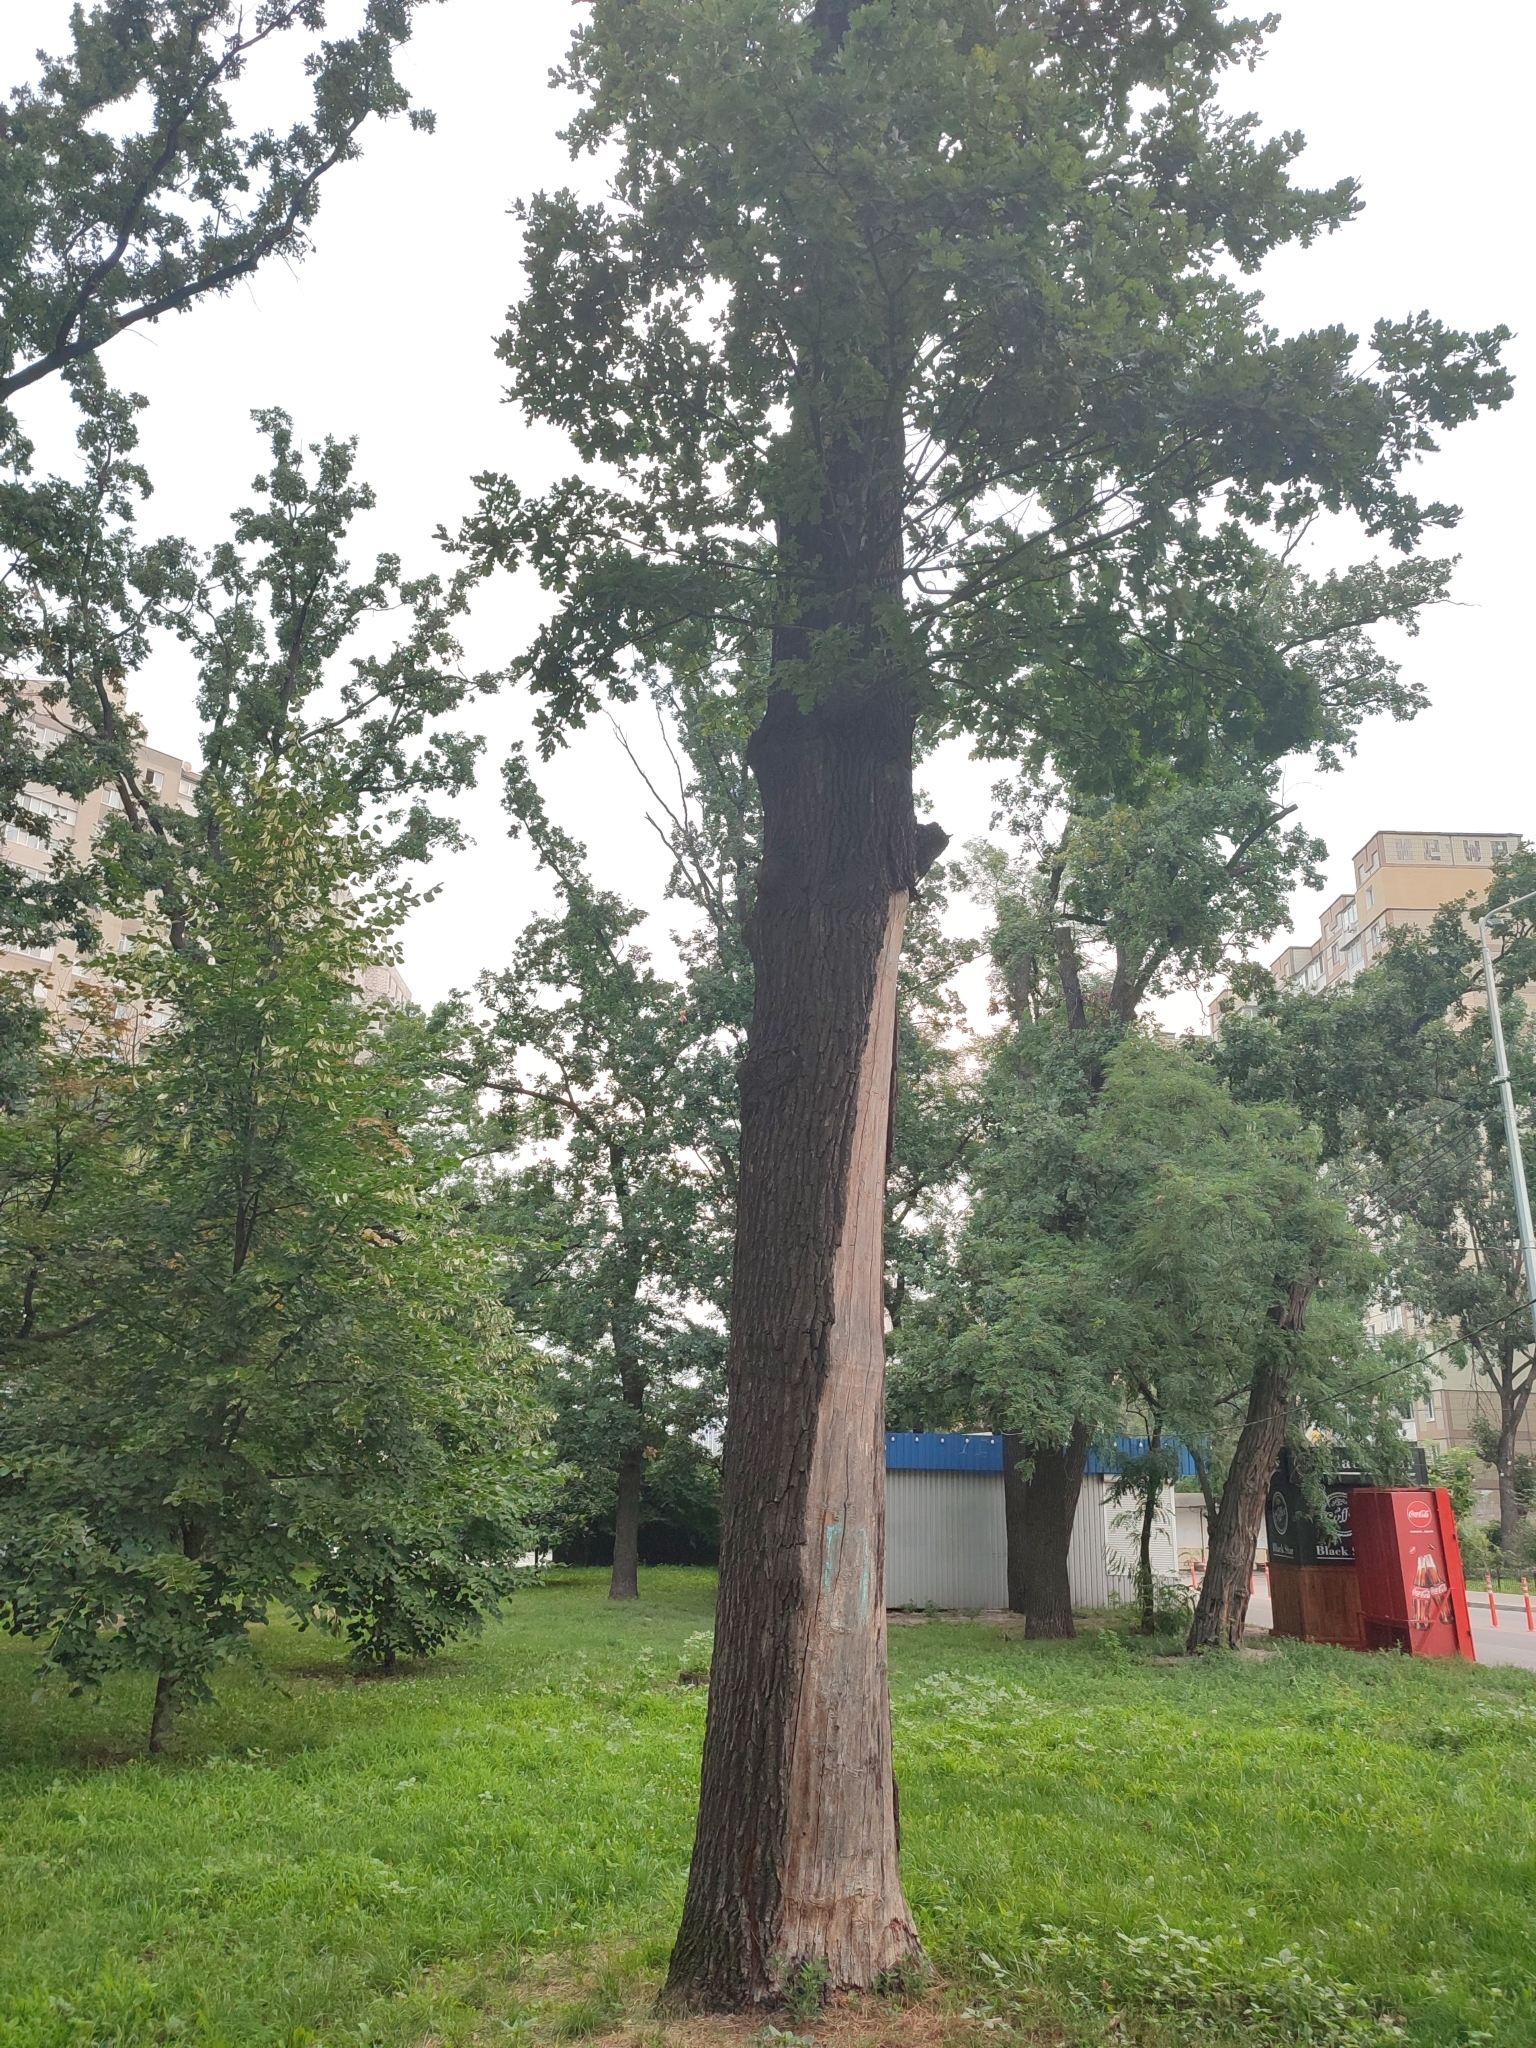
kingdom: Plantae
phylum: Tracheophyta
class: Magnoliopsida
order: Fagales
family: Fagaceae
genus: Quercus
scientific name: Quercus robur
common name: Pedunculate oak
